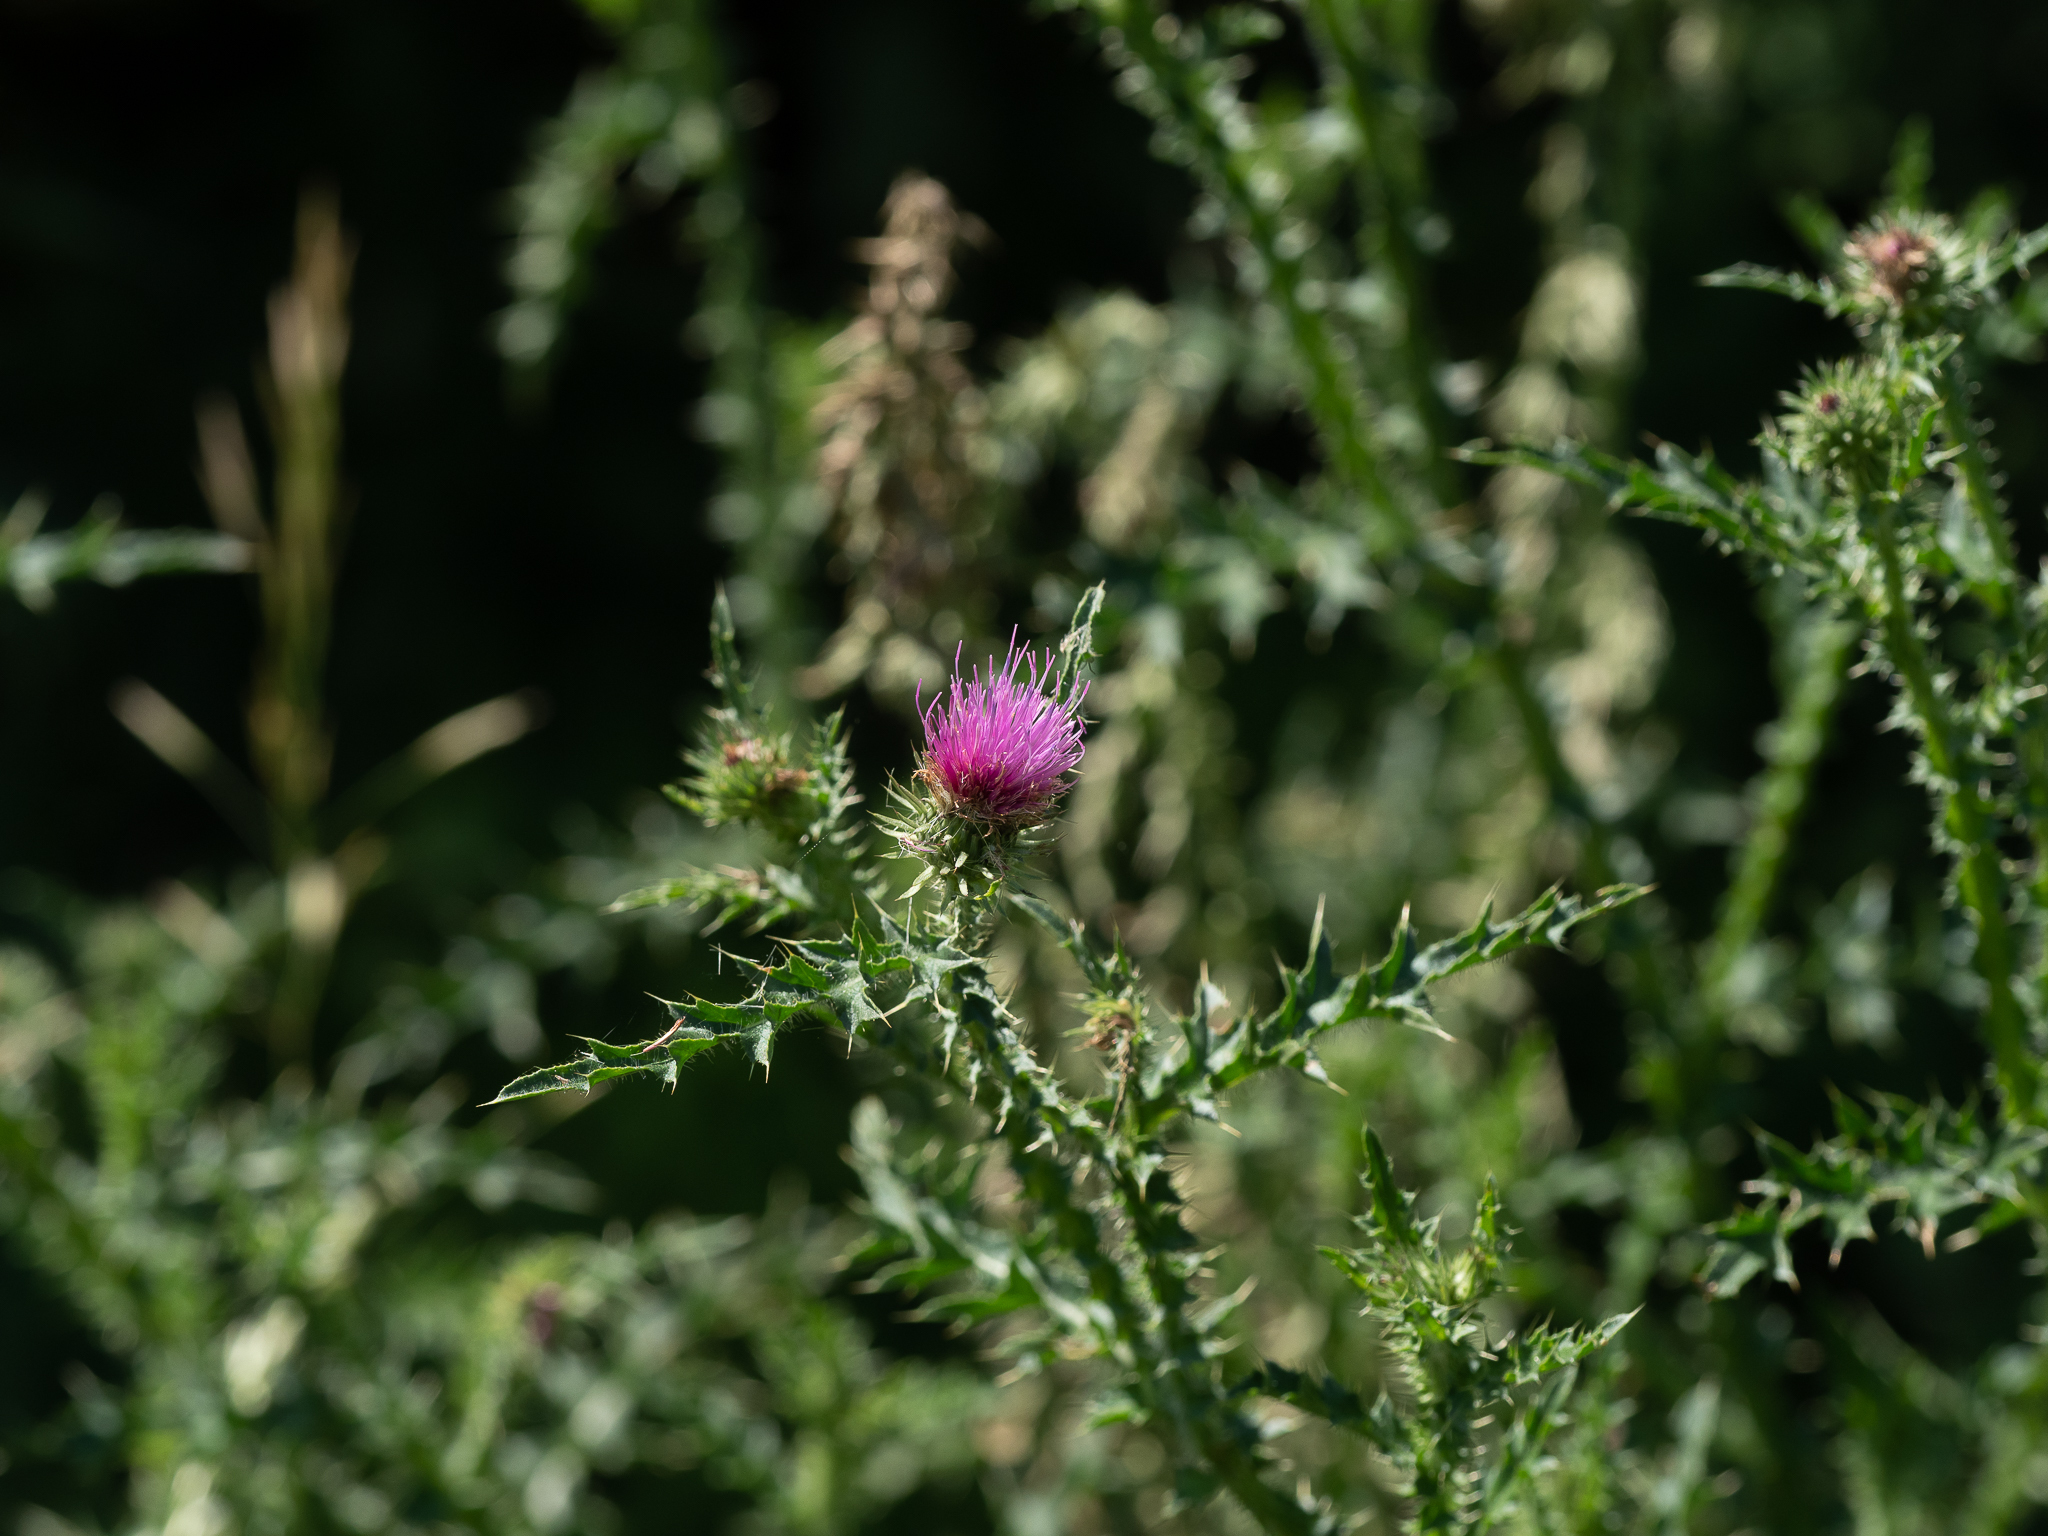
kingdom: Plantae
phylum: Tracheophyta
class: Magnoliopsida
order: Asterales
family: Asteraceae
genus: Carduus
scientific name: Carduus acanthoides
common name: Plumeless thistle
